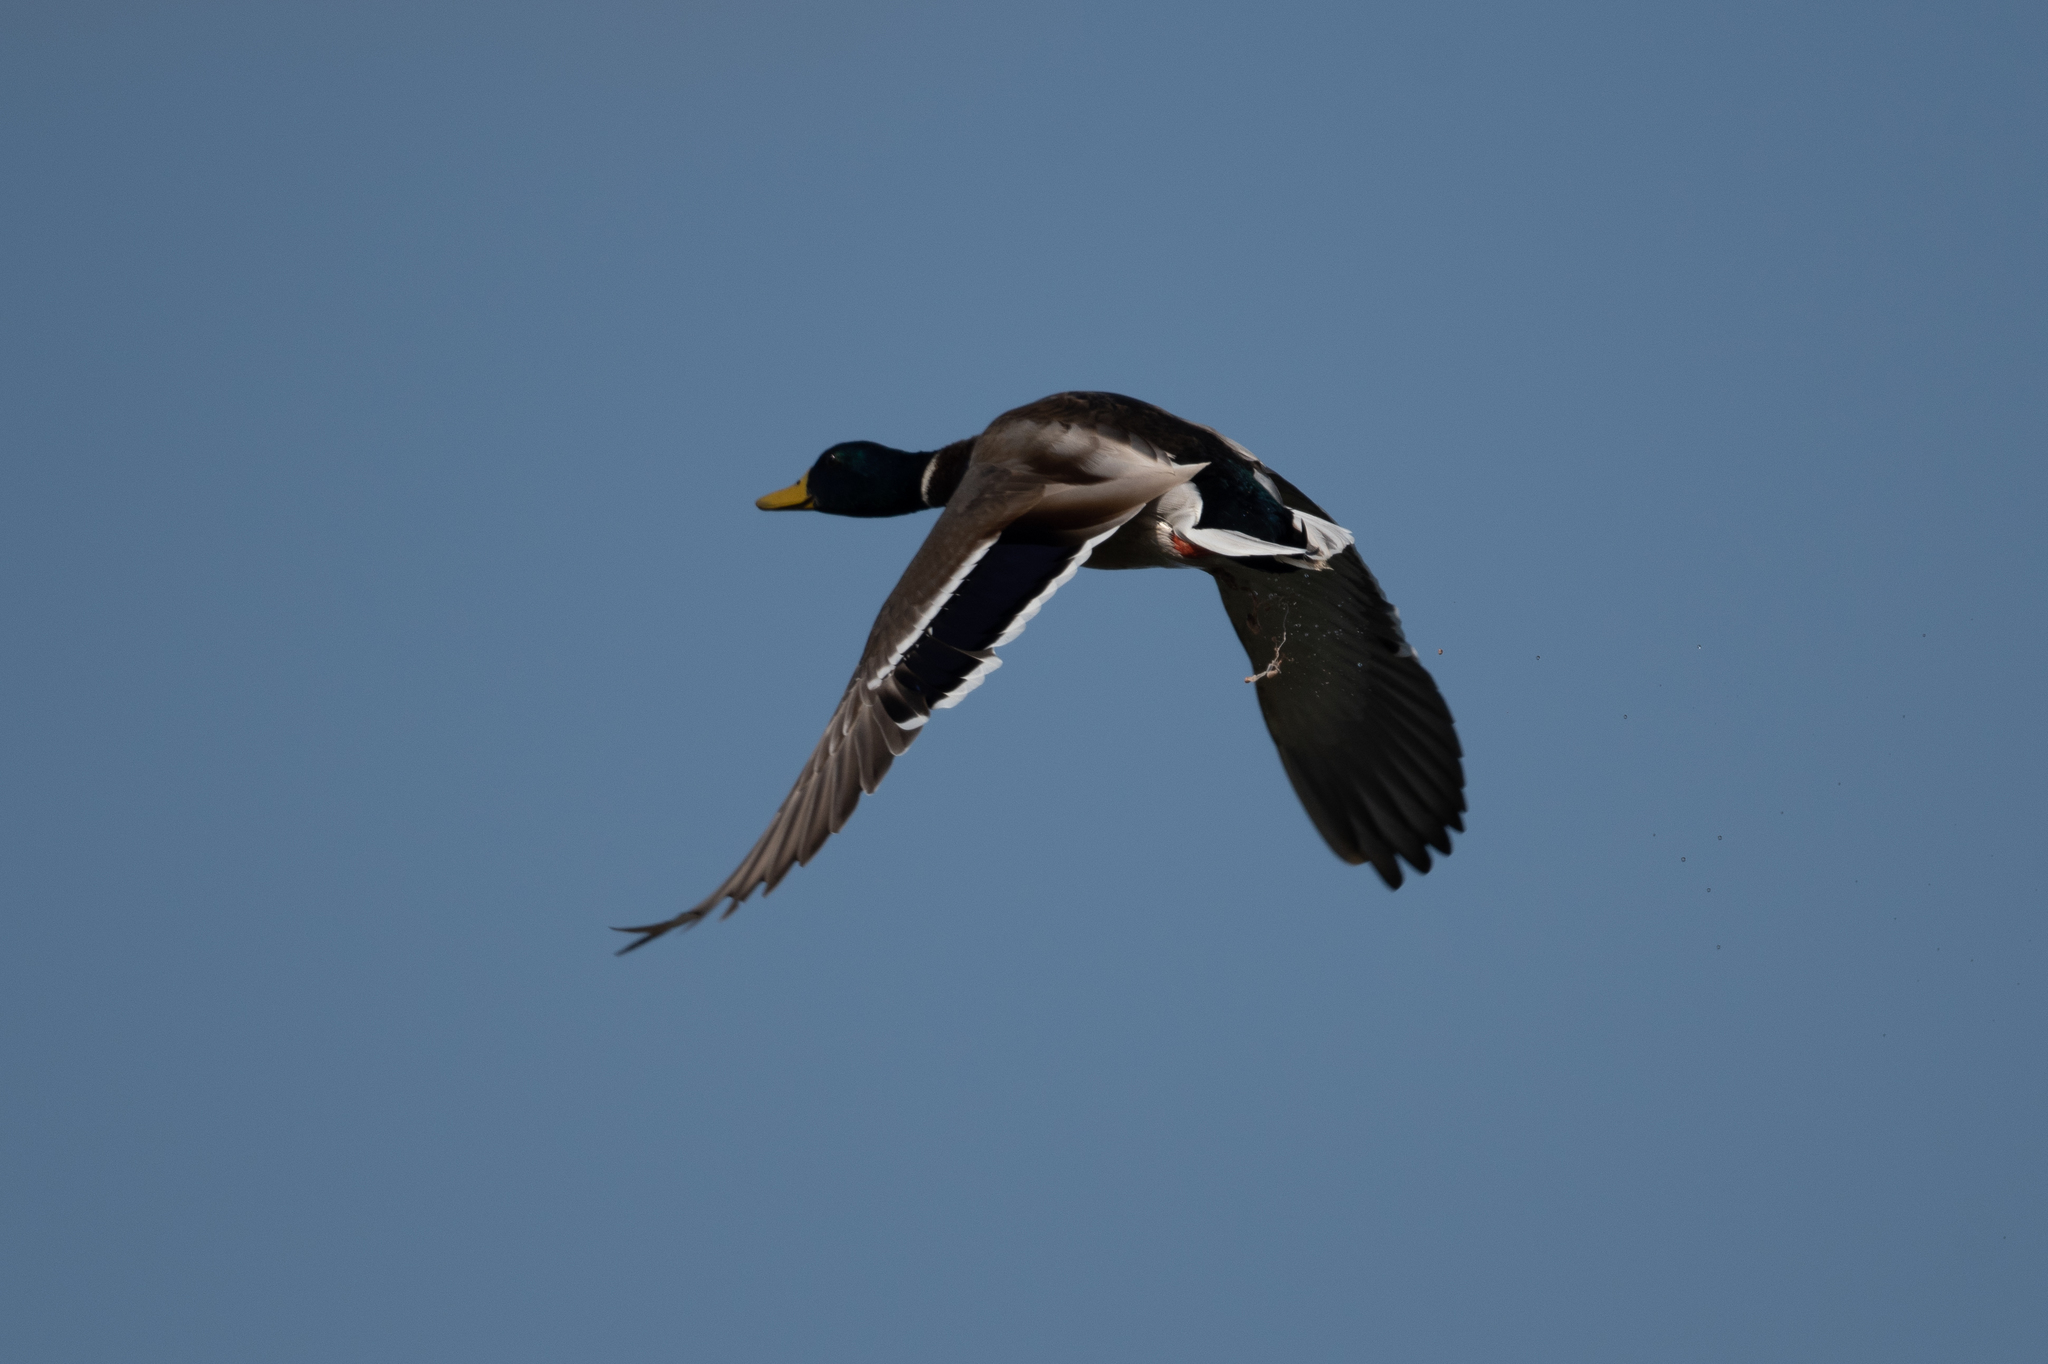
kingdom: Animalia
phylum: Chordata
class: Aves
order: Anseriformes
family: Anatidae
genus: Anas
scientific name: Anas platyrhynchos
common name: Mallard
